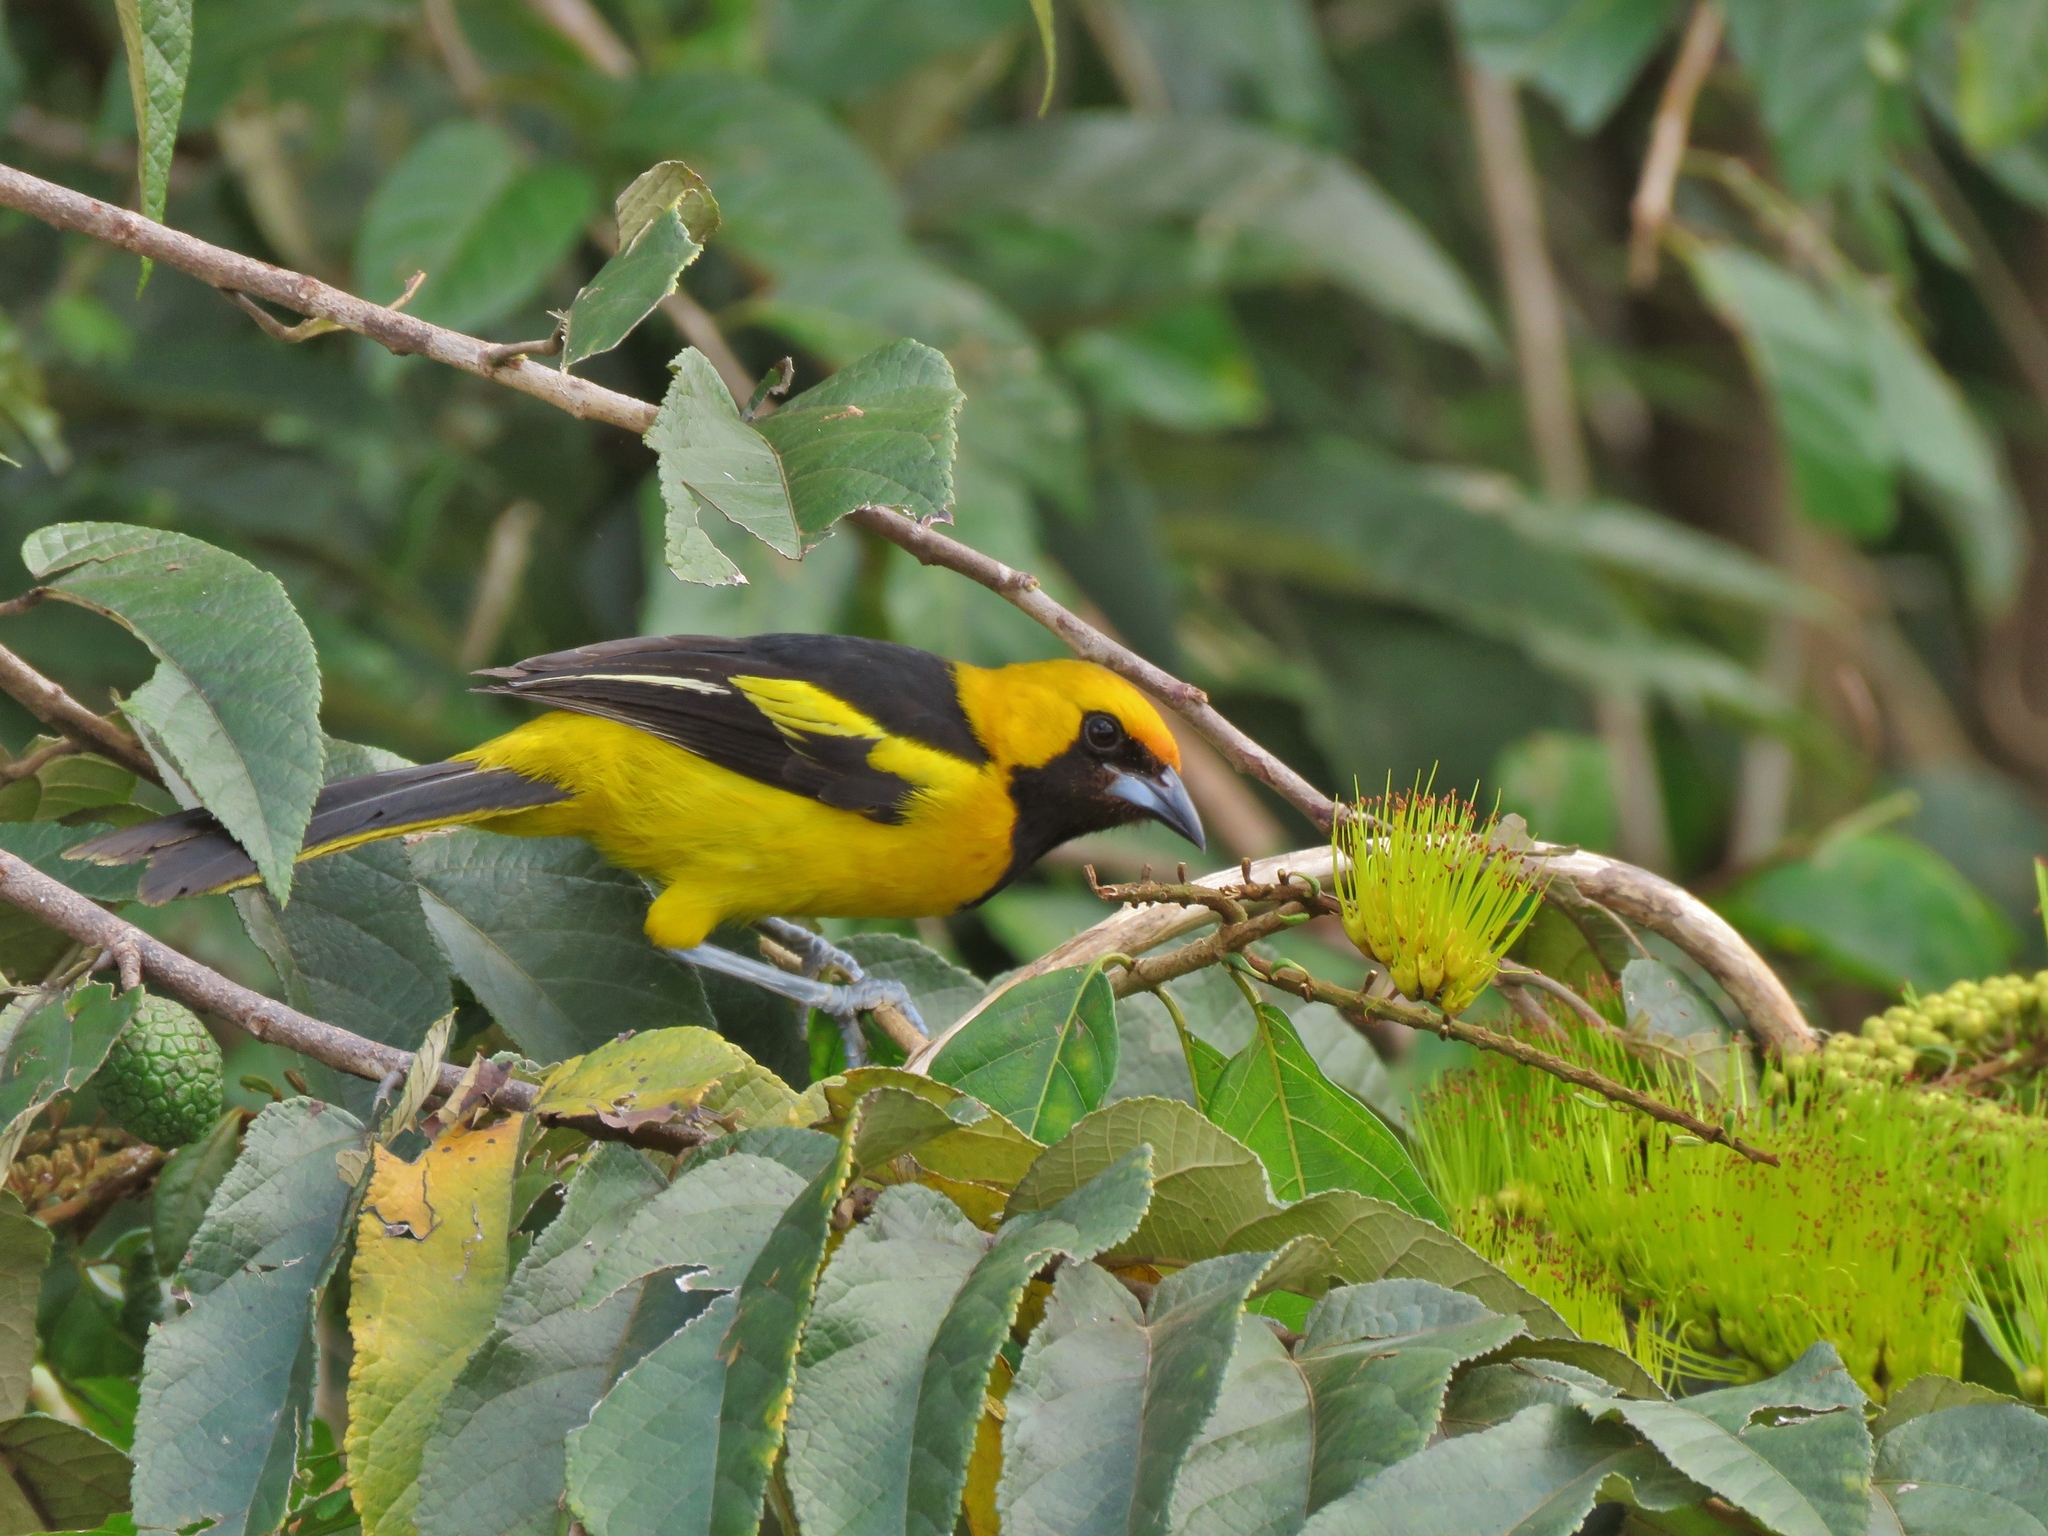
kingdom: Animalia
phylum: Chordata
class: Aves
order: Passeriformes
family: Icteridae
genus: Icterus
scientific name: Icterus mesomelas
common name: Yellow-tailed oriole
